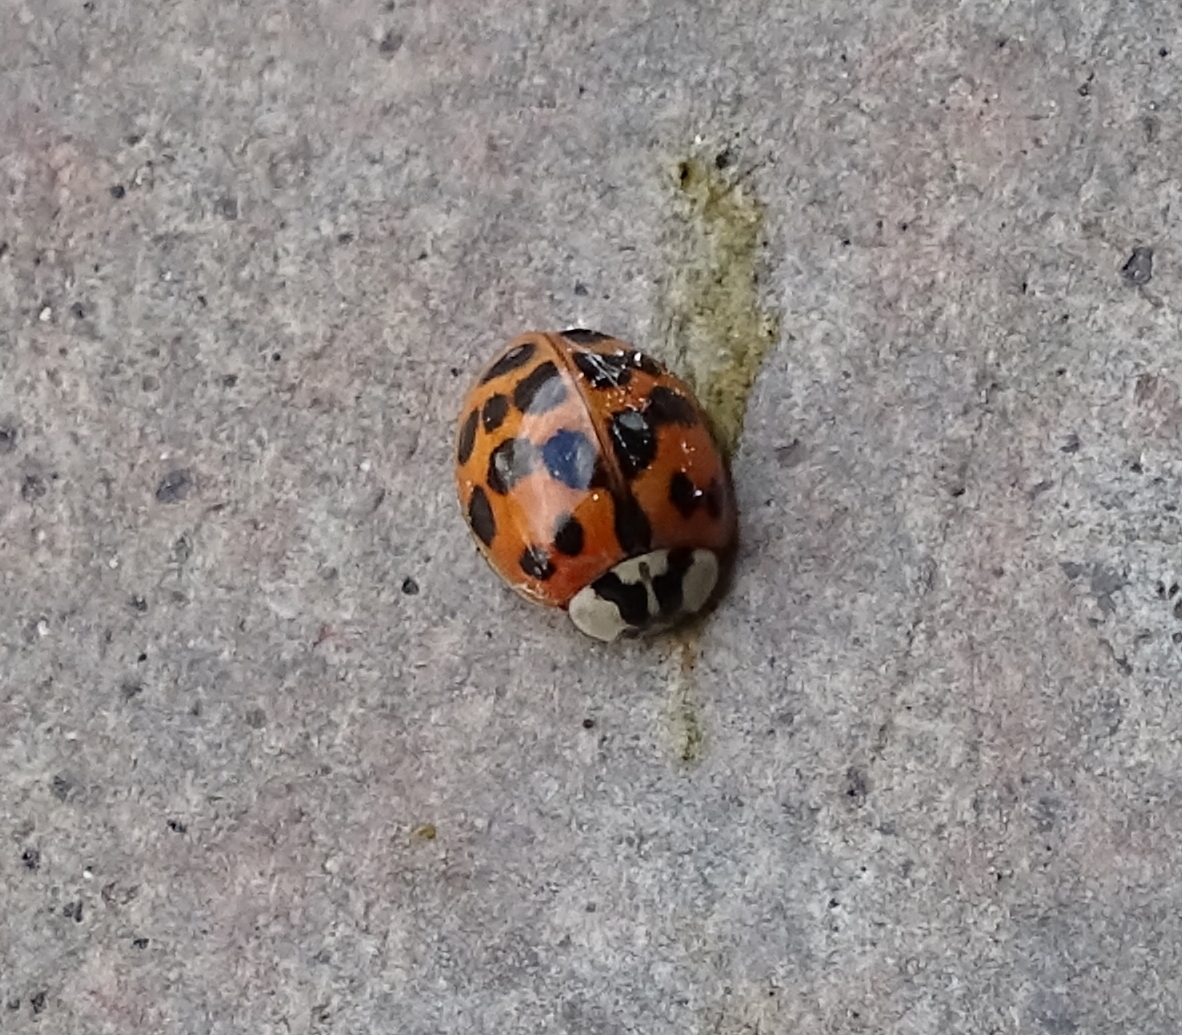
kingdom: Animalia
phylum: Arthropoda
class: Insecta
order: Coleoptera
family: Coccinellidae
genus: Harmonia
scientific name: Harmonia axyridis
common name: Harlequin ladybird
